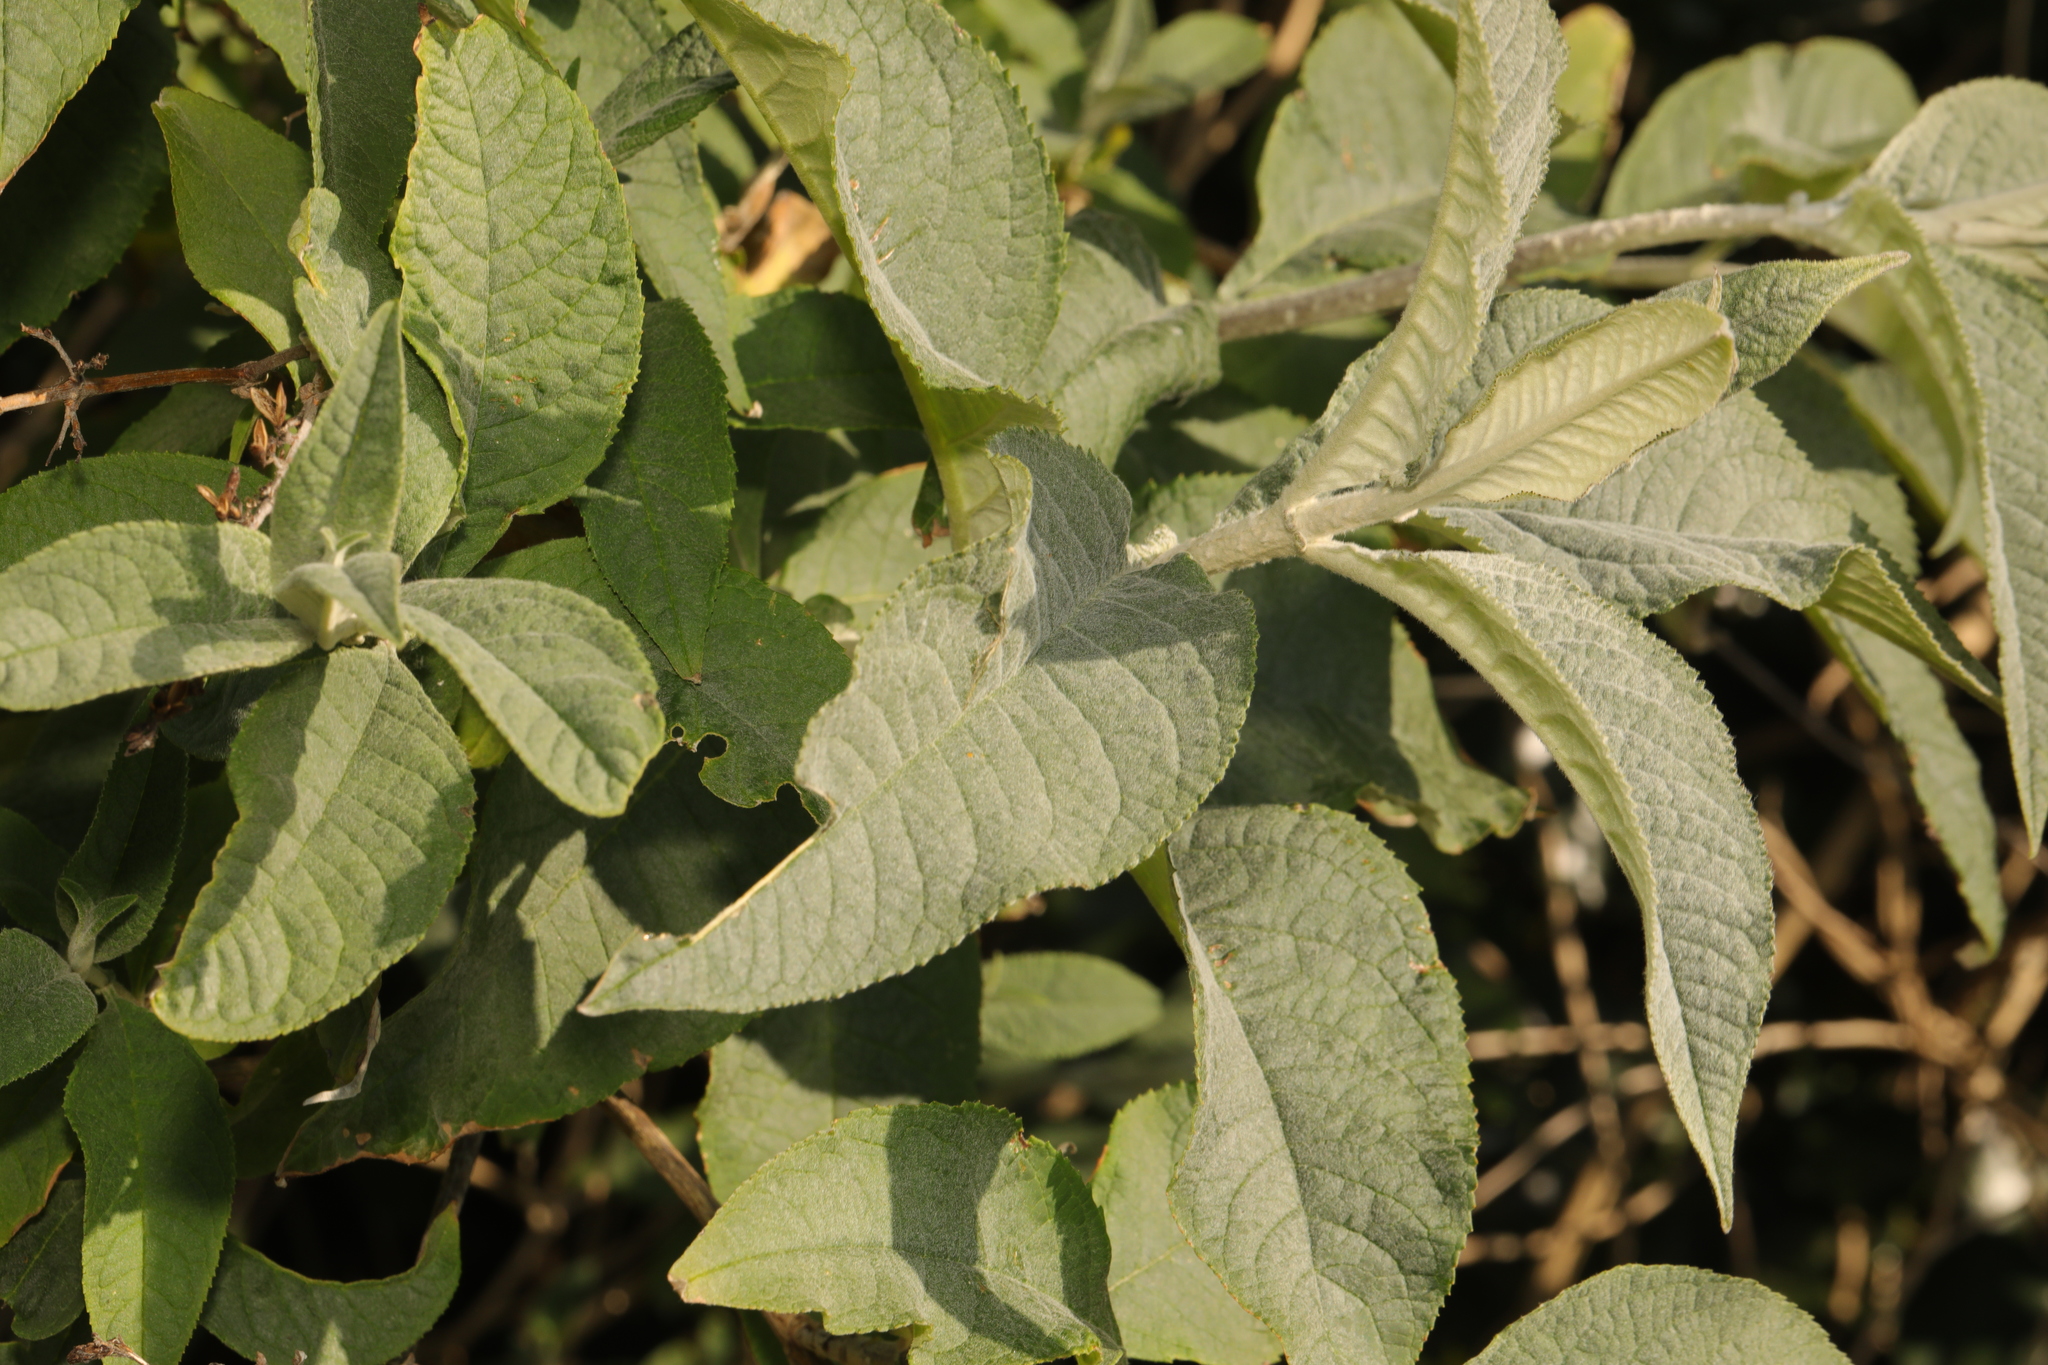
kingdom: Plantae
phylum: Tracheophyta
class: Magnoliopsida
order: Lamiales
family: Scrophulariaceae
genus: Buddleja
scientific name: Buddleja davidii
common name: Butterfly-bush
